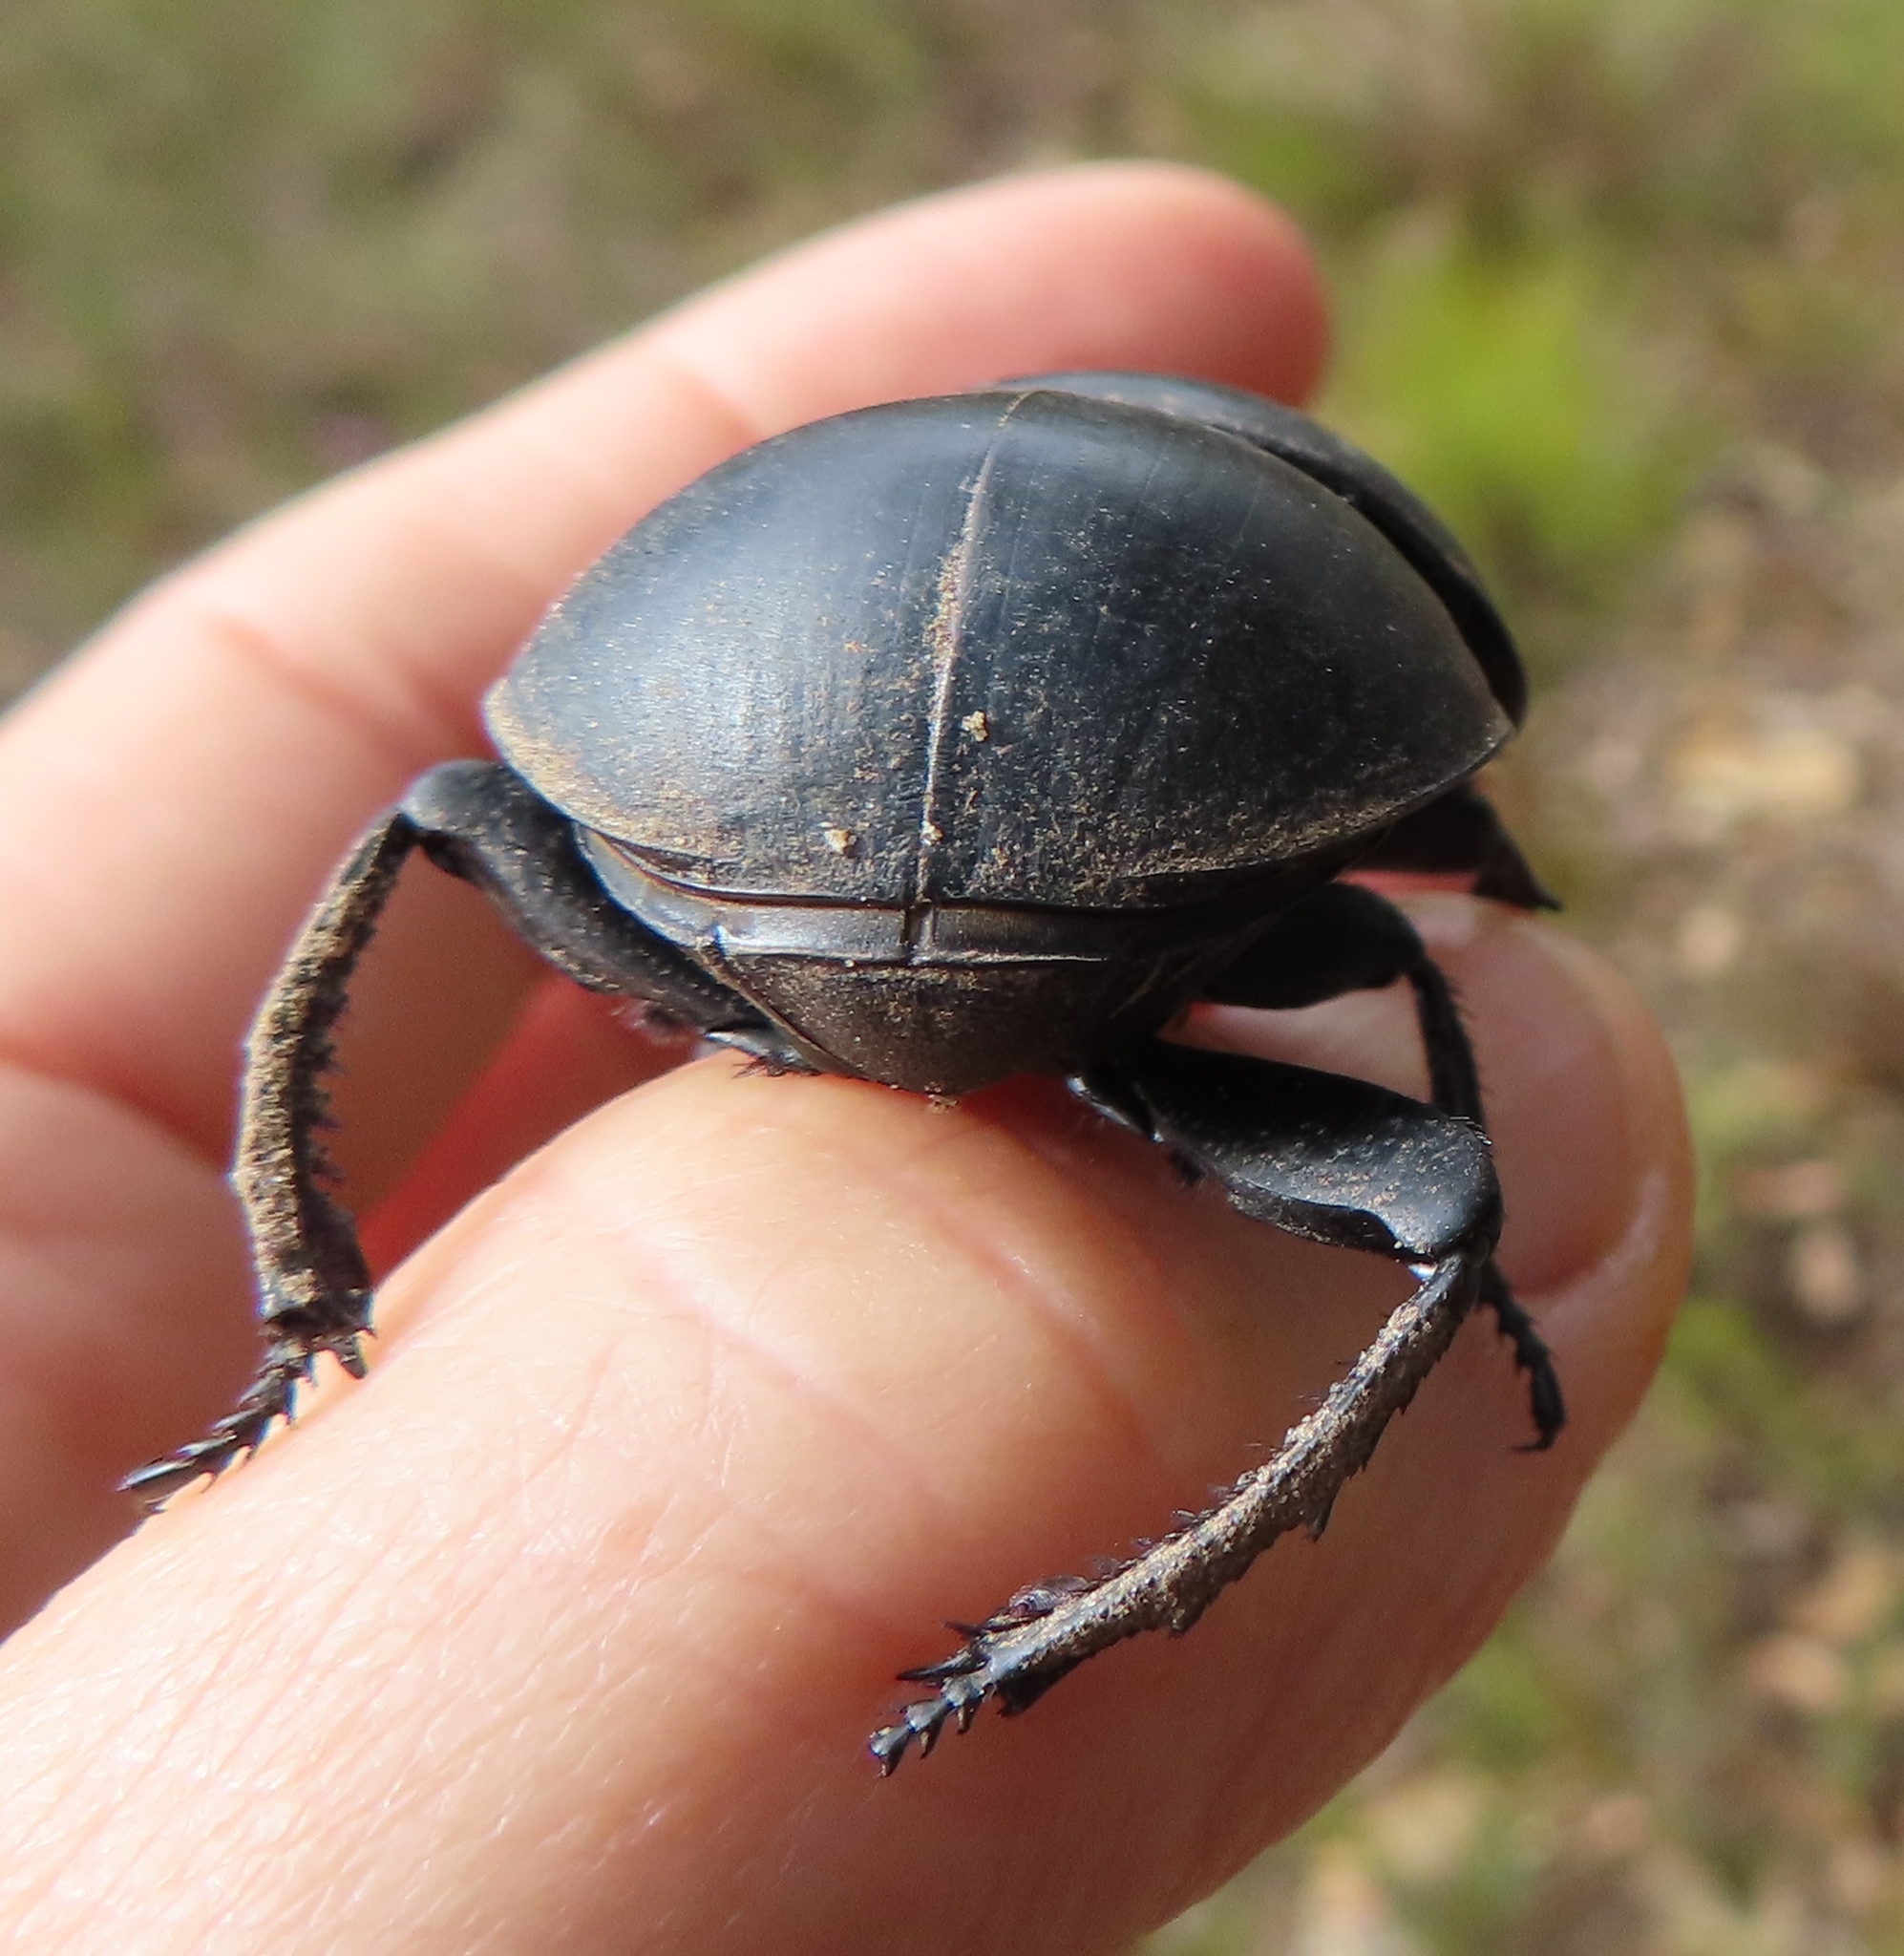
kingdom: Animalia
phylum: Arthropoda
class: Insecta
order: Coleoptera
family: Scarabaeidae
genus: Circellium
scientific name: Circellium bacchus
